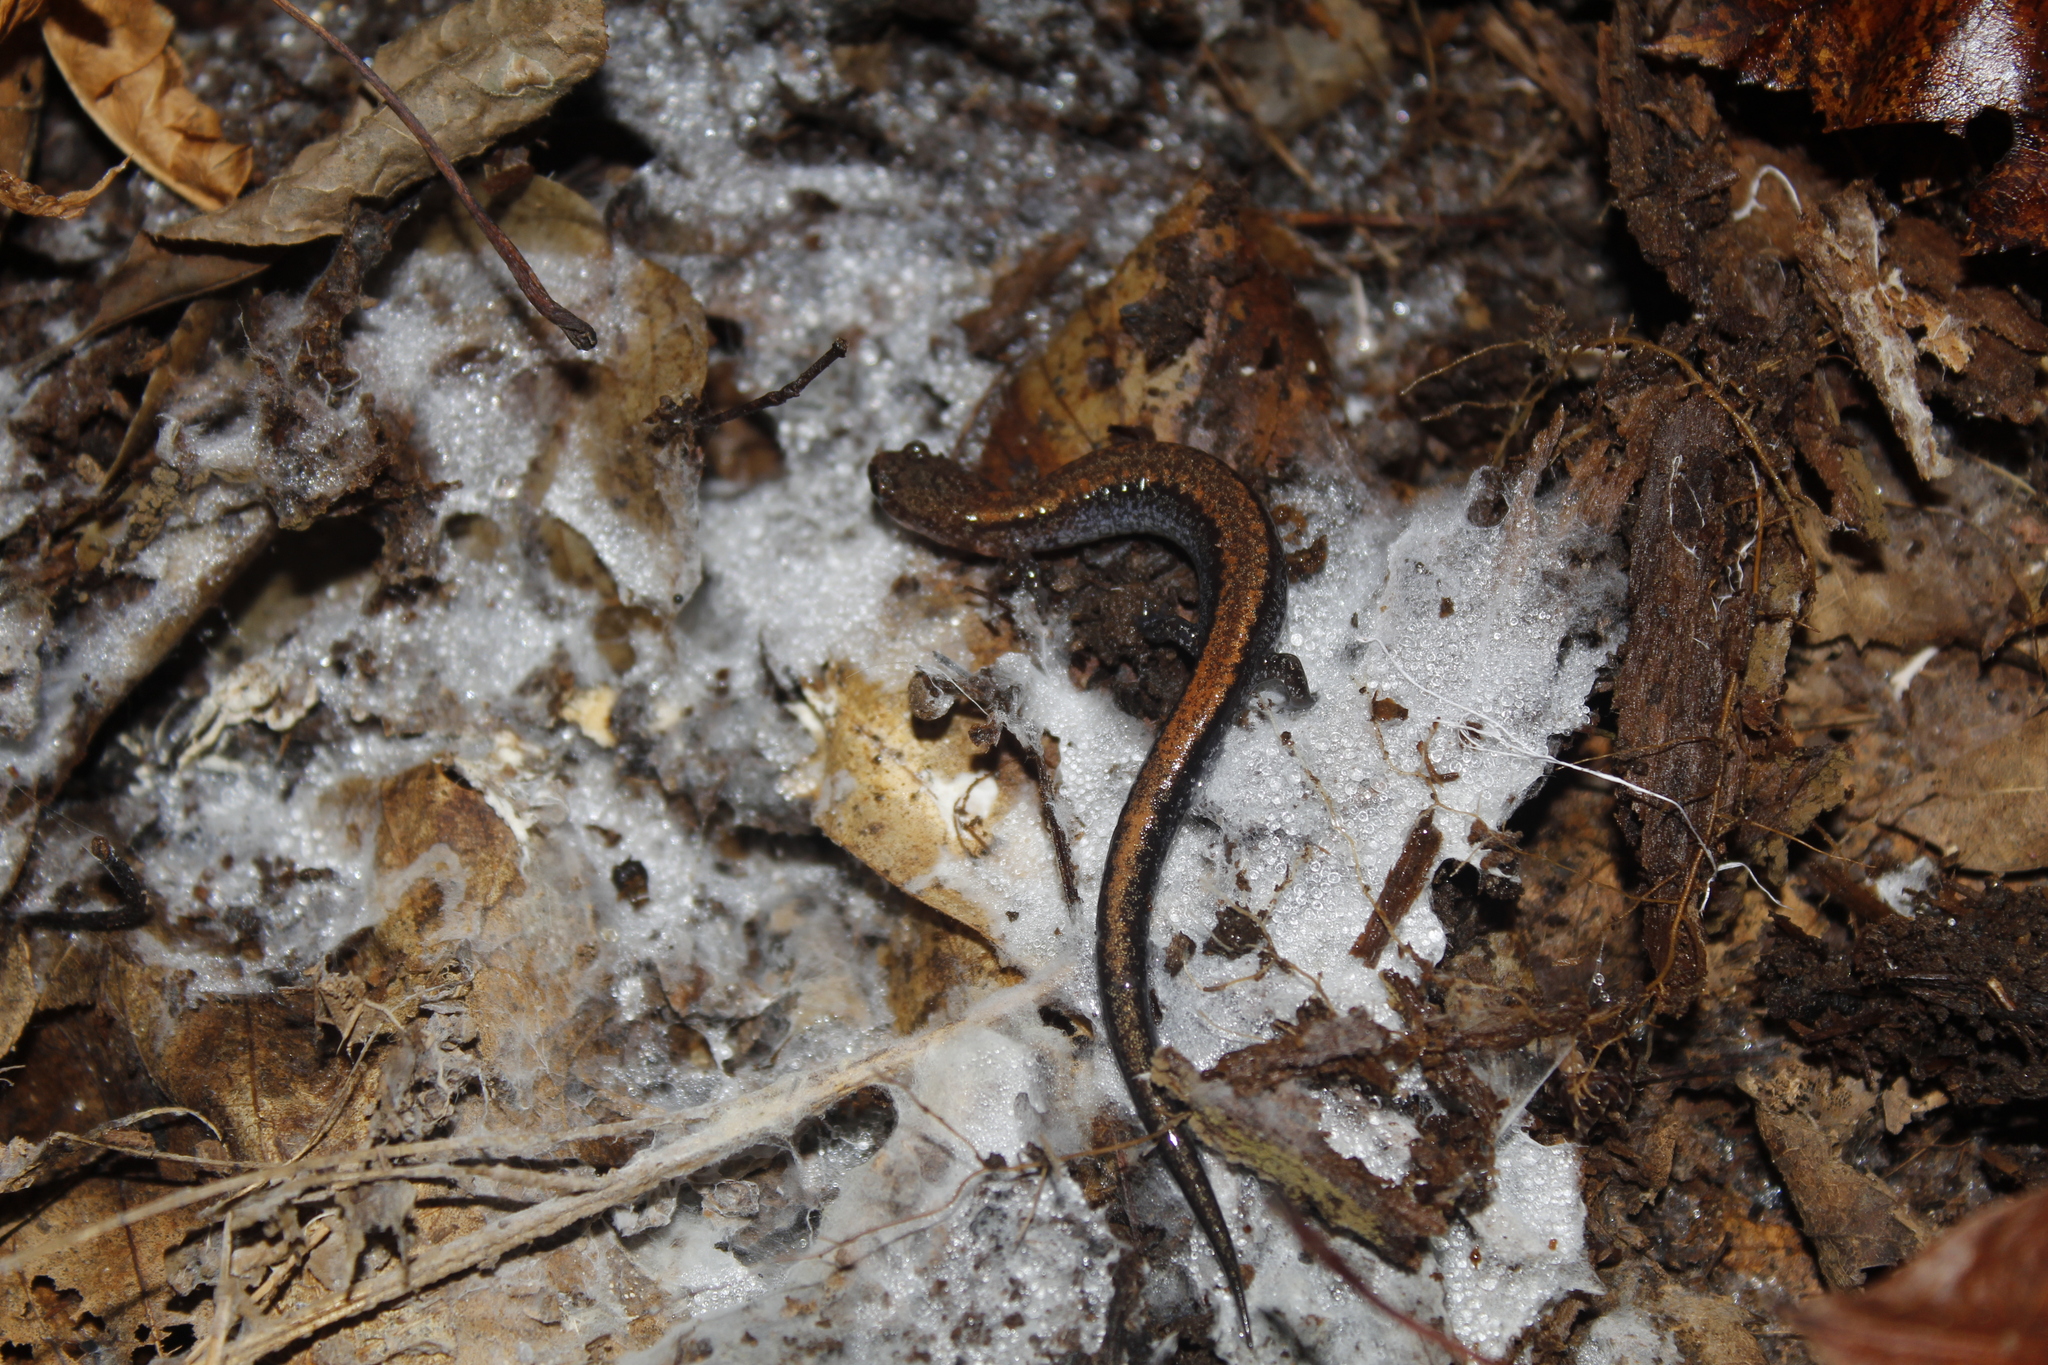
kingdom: Animalia
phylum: Chordata
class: Amphibia
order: Caudata
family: Plethodontidae
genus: Plethodon
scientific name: Plethodon cinereus
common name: Redback salamander
